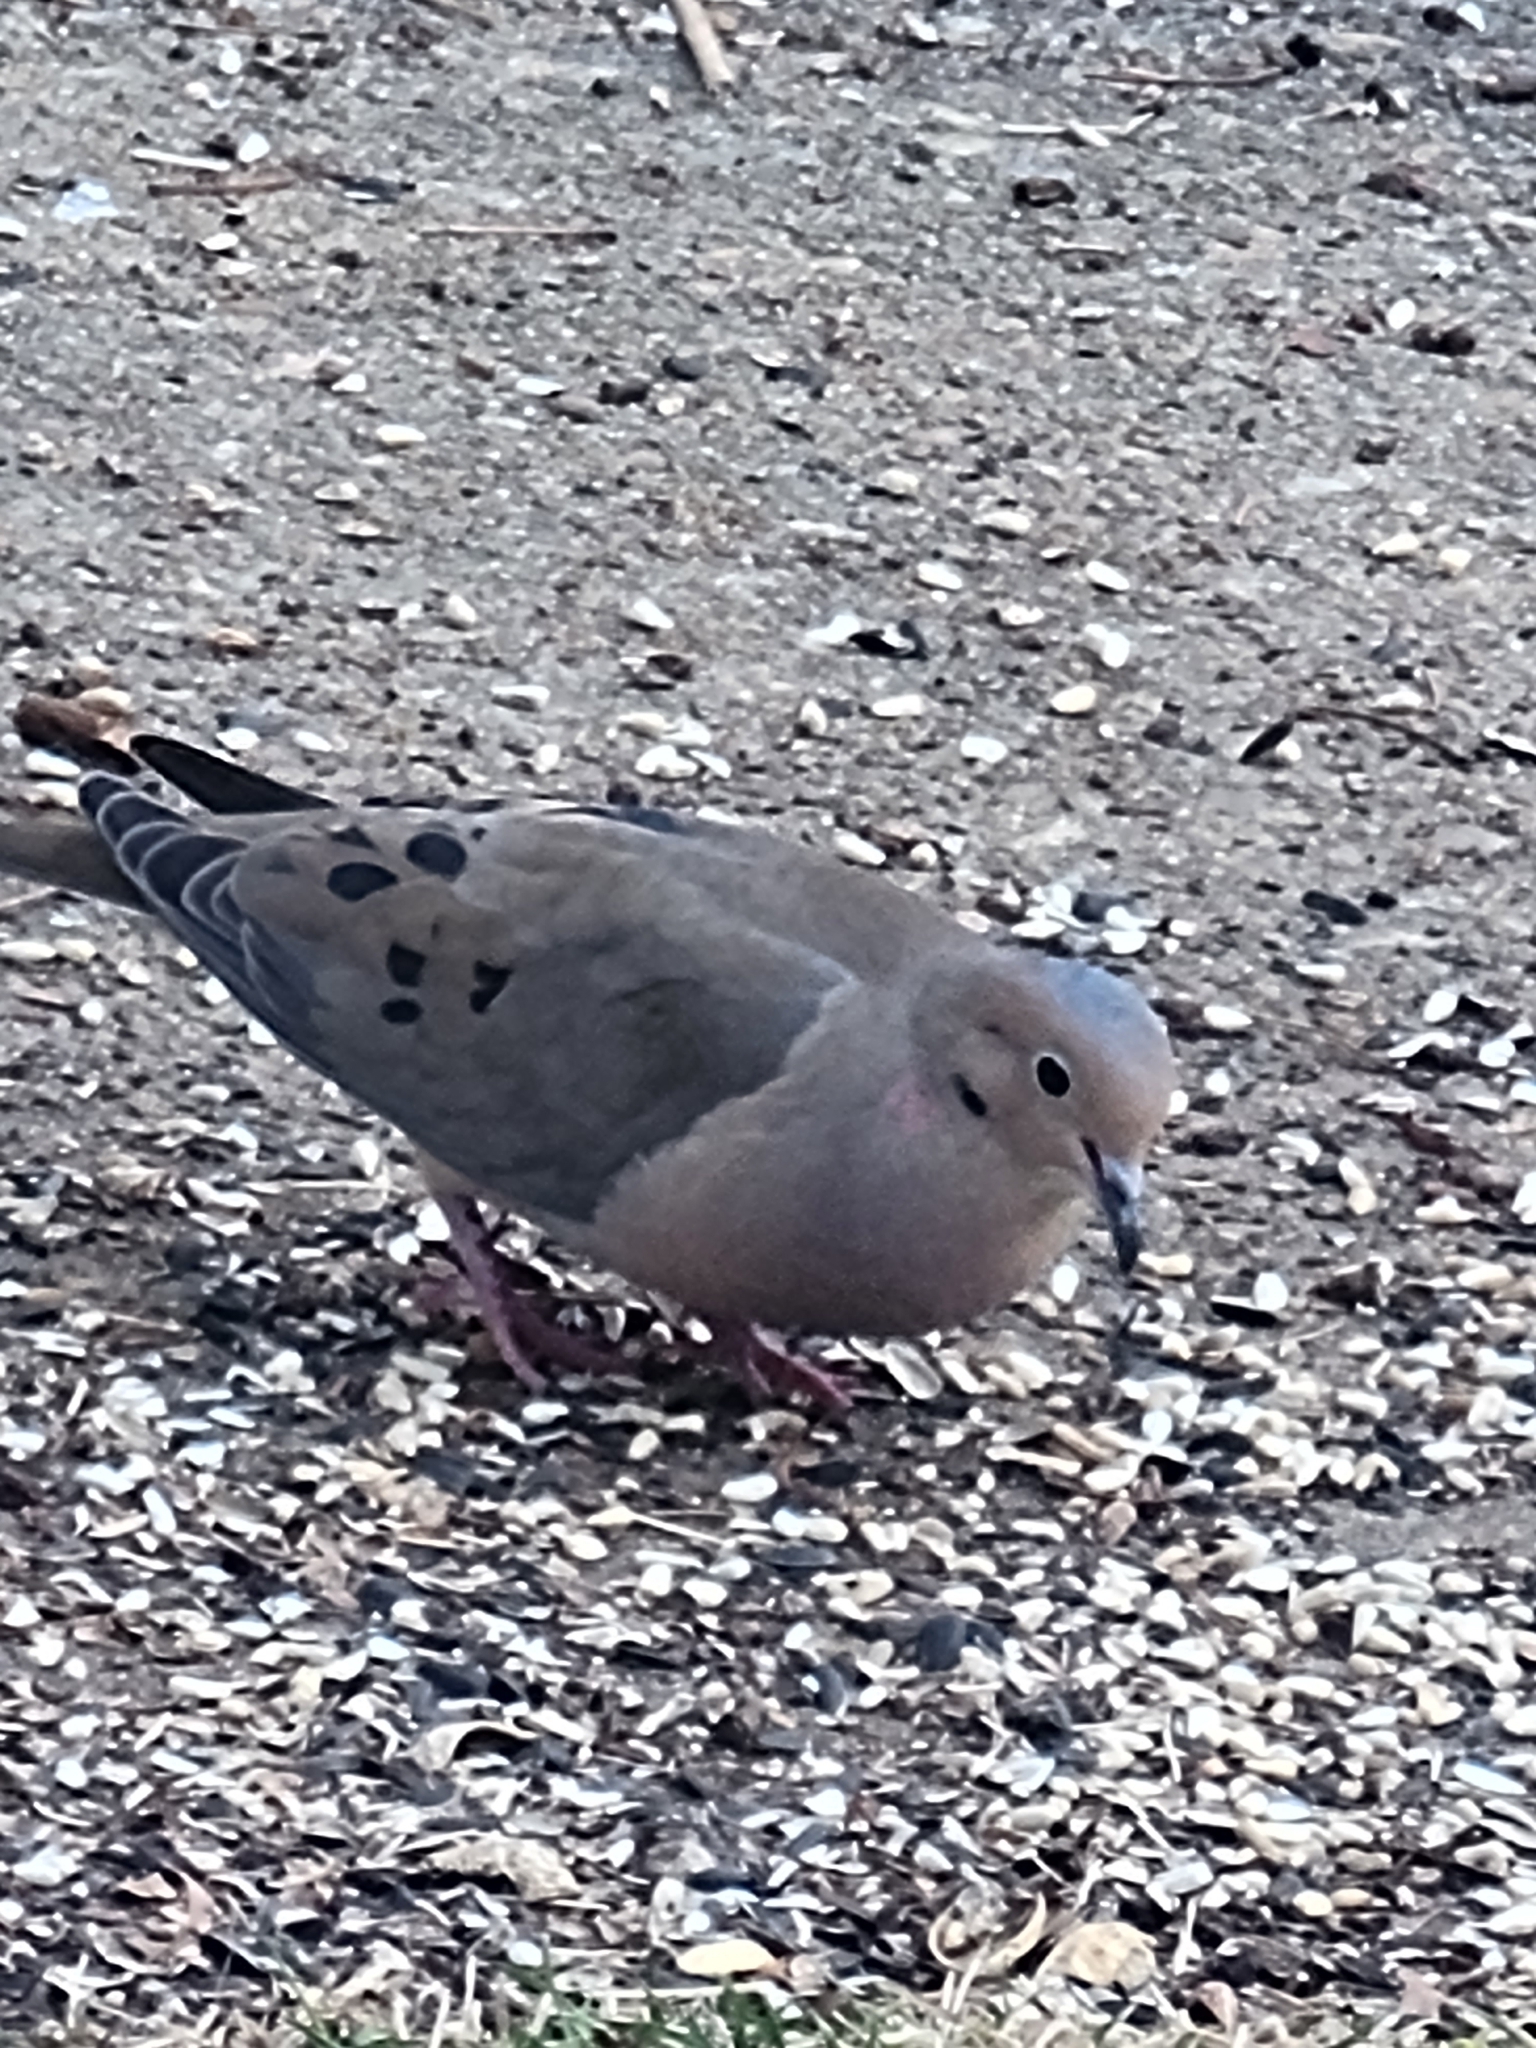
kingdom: Animalia
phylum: Chordata
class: Aves
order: Columbiformes
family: Columbidae
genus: Zenaida
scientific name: Zenaida macroura
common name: Mourning dove
